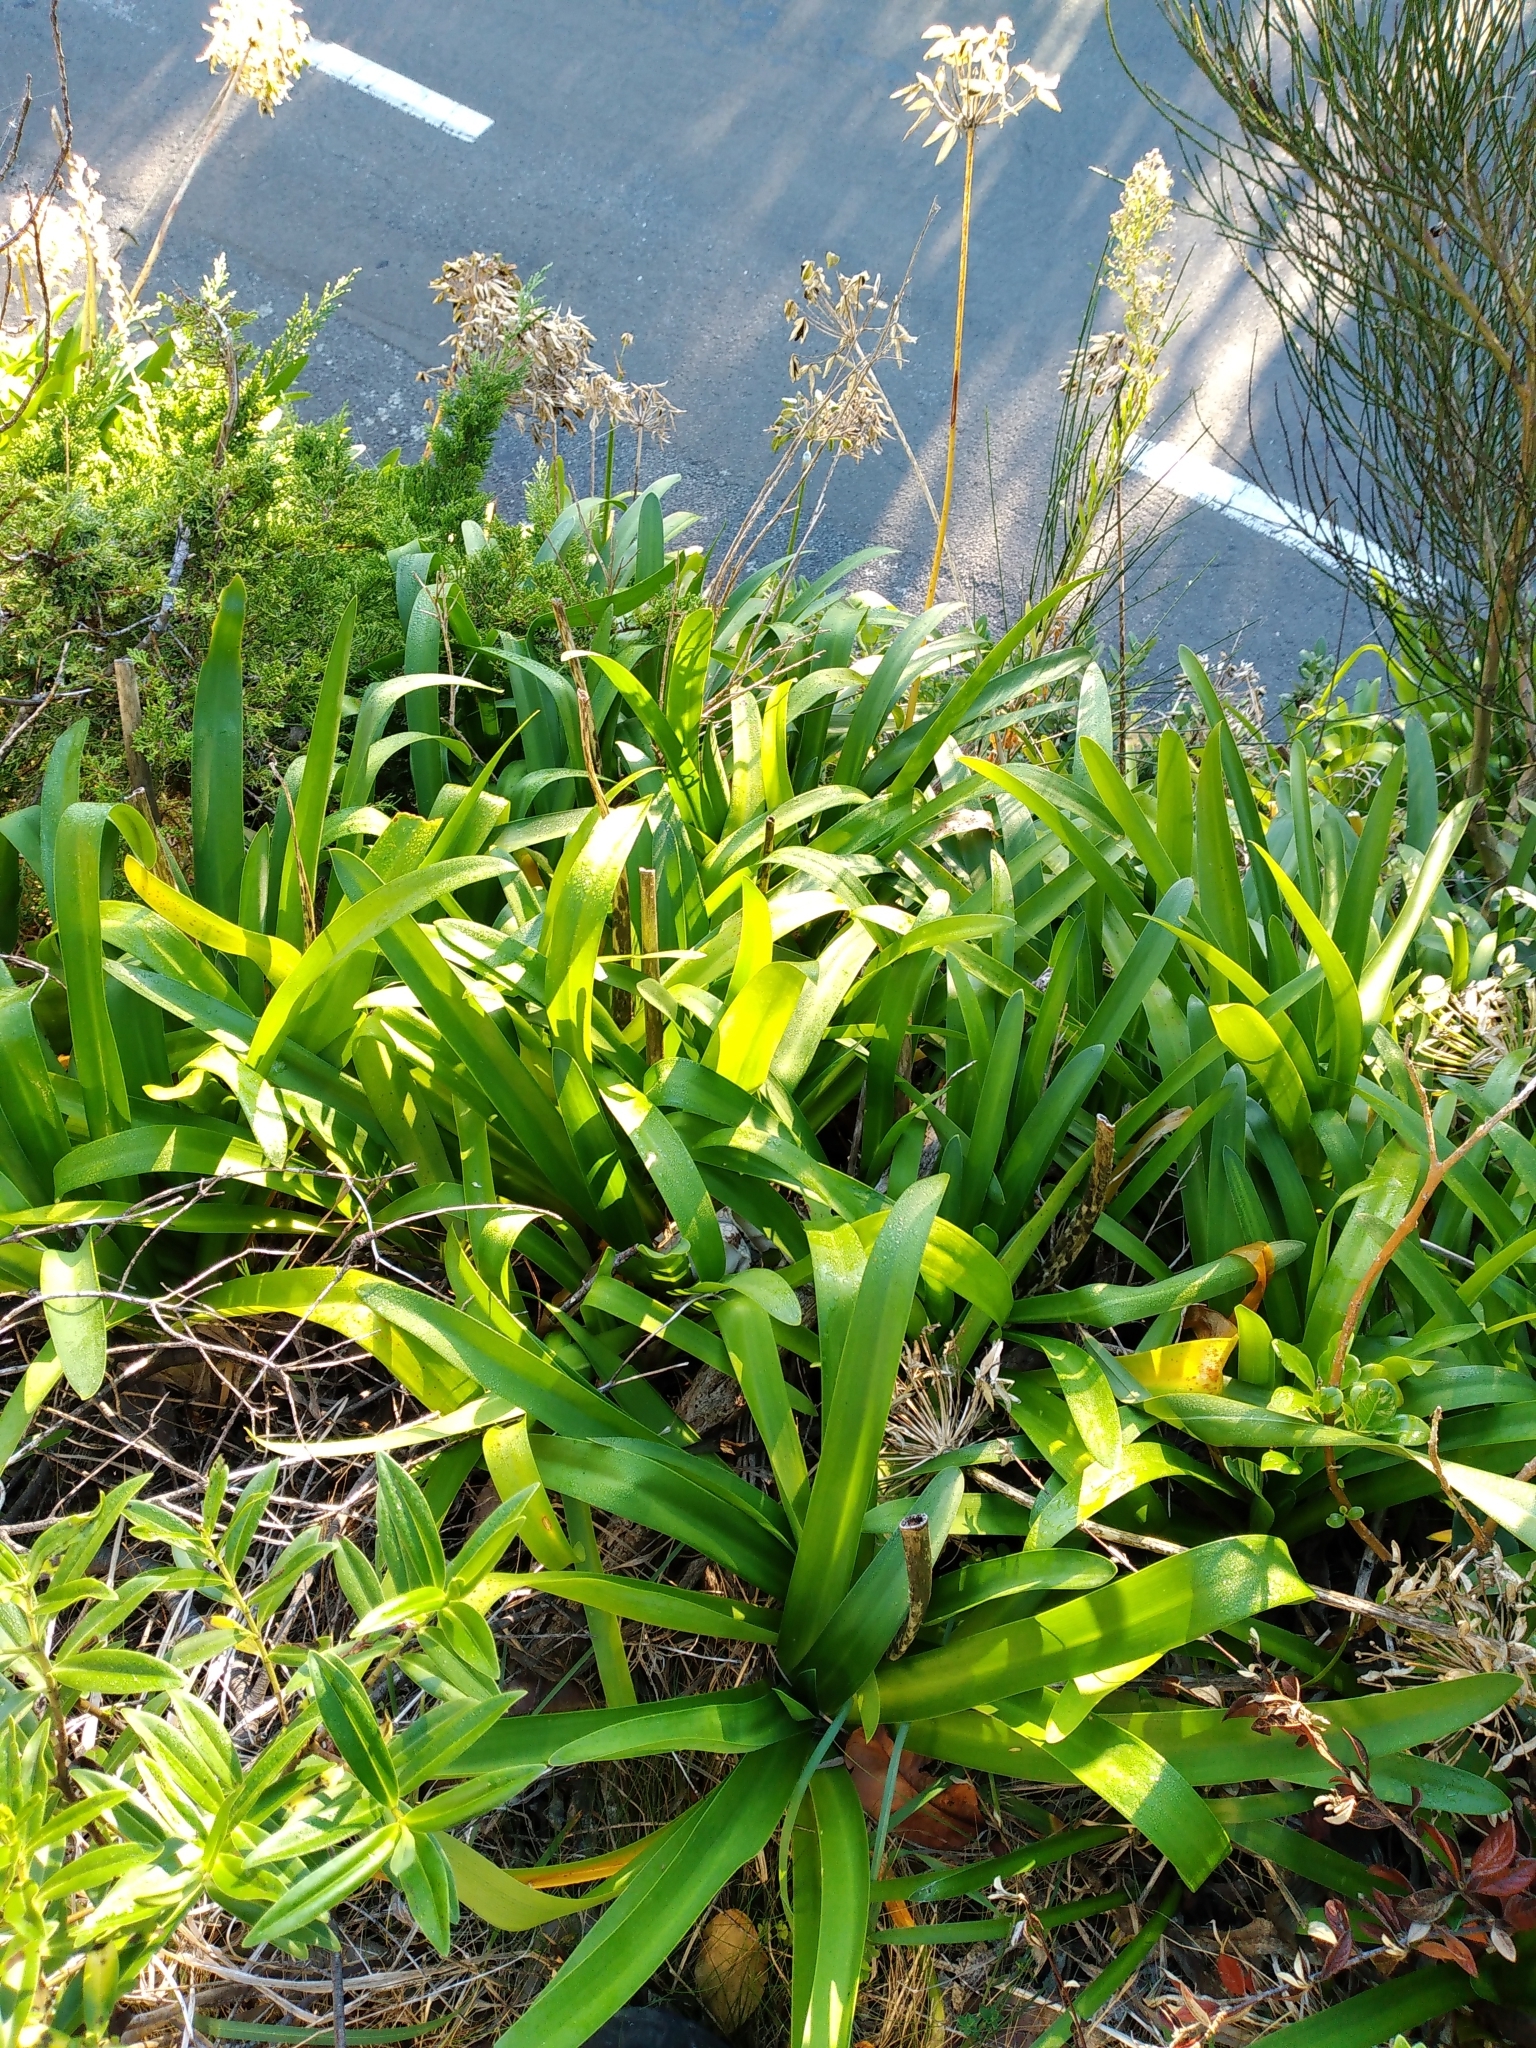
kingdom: Plantae
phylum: Tracheophyta
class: Liliopsida
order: Asparagales
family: Amaryllidaceae
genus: Agapanthus
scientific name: Agapanthus praecox
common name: African-lily
